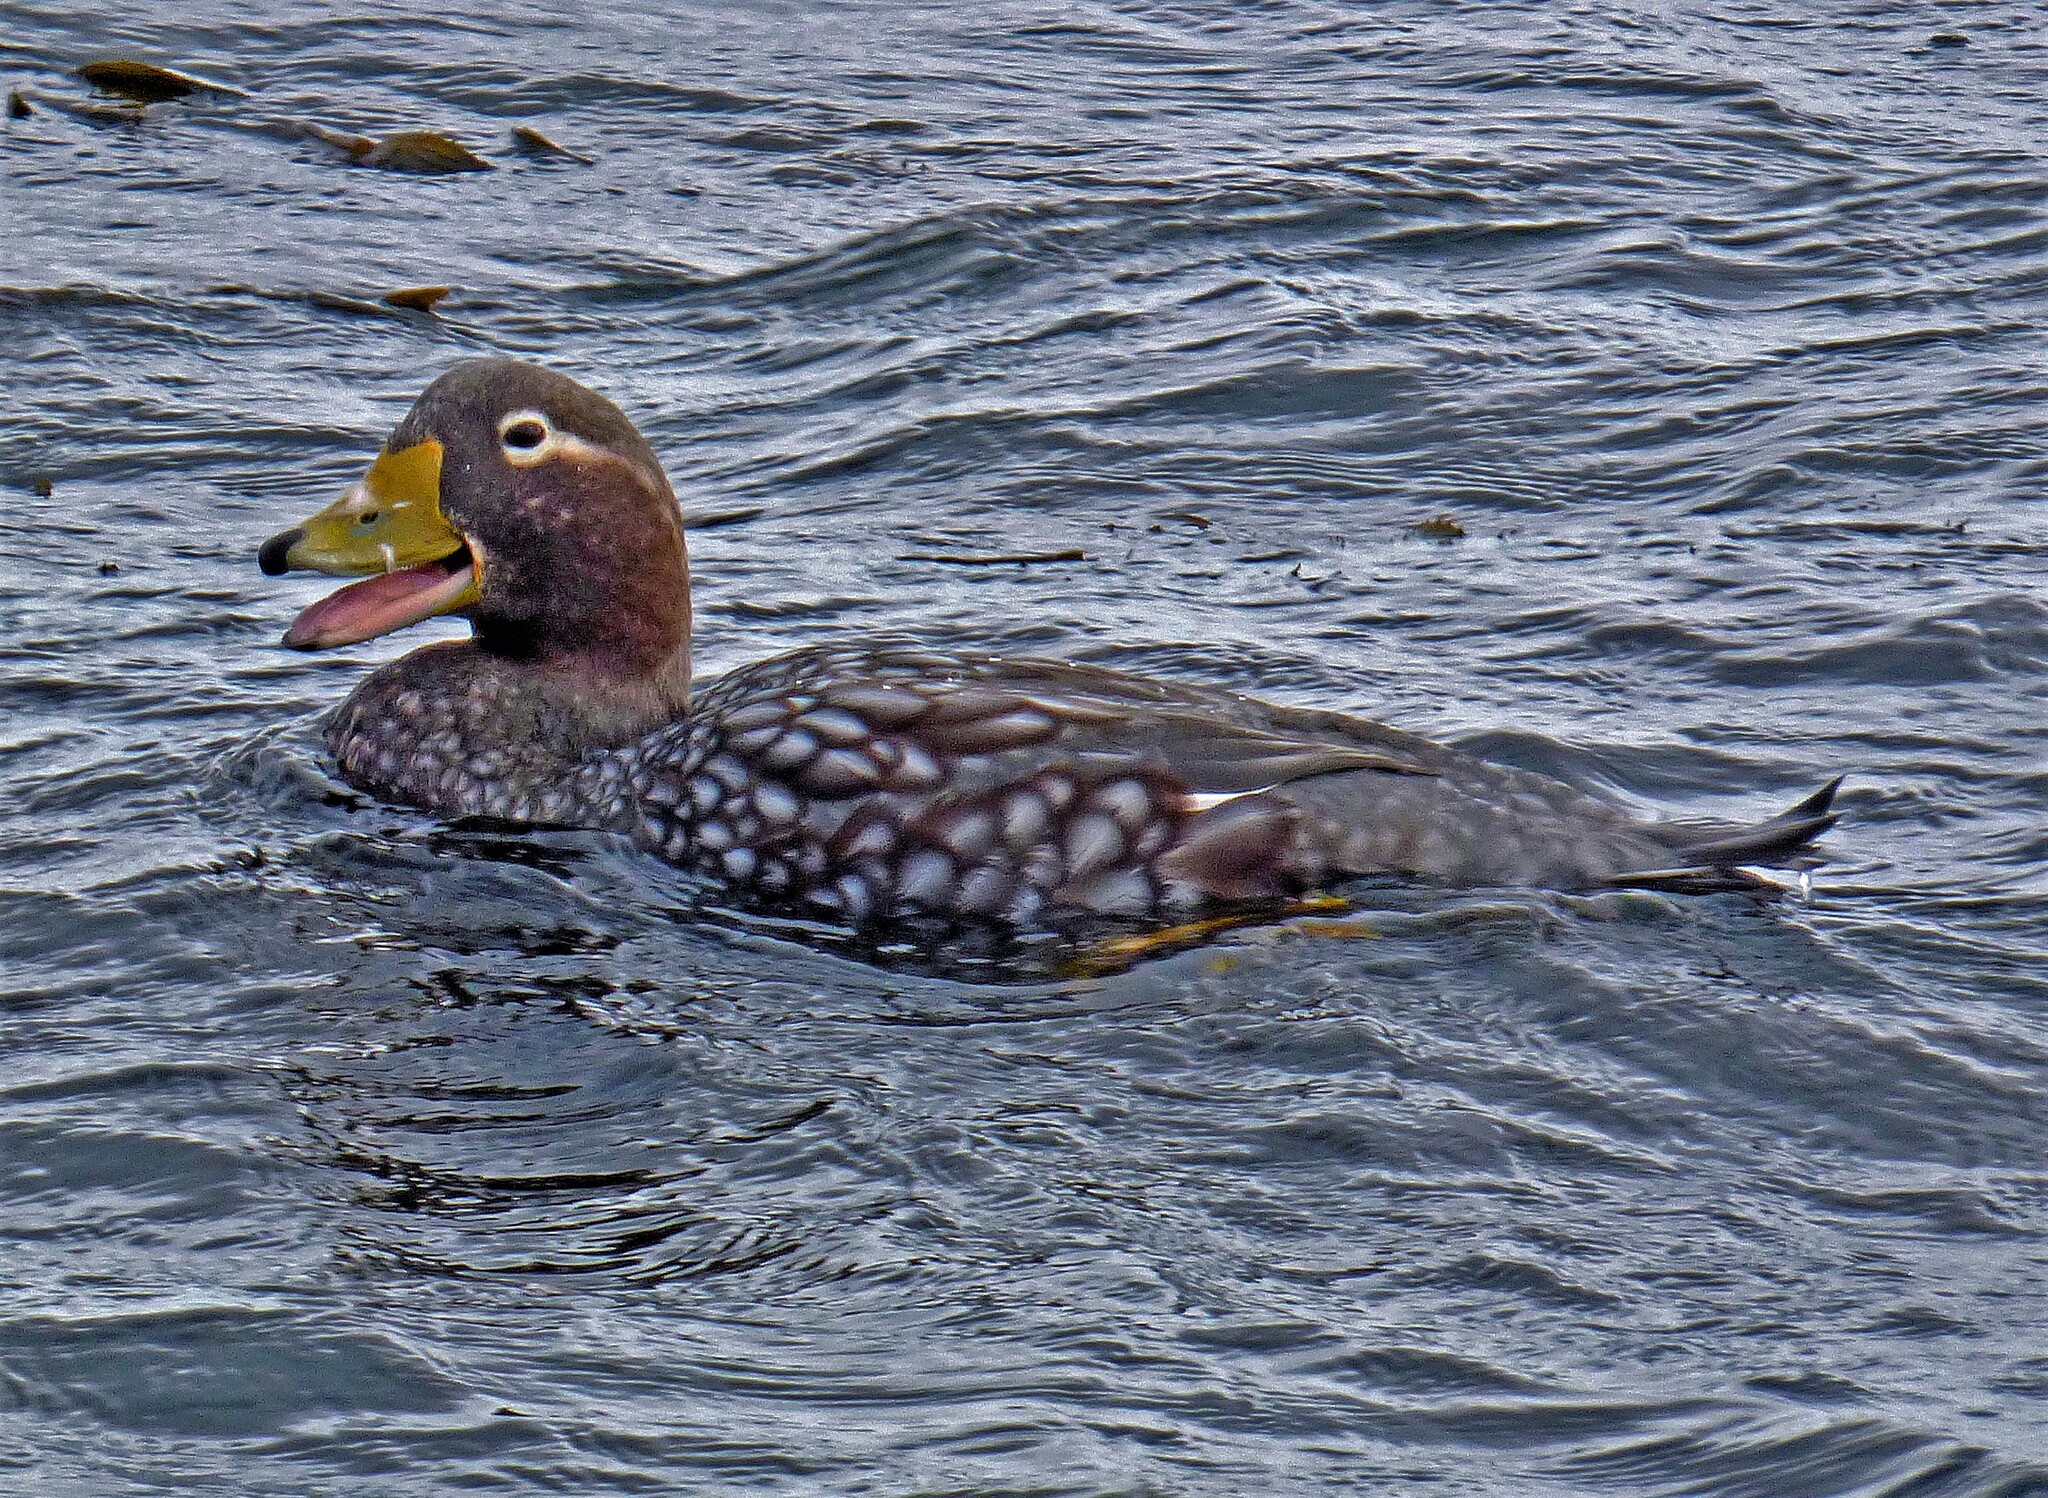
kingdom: Animalia
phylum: Chordata
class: Aves
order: Anseriformes
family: Anatidae
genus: Tachyeres
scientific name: Tachyeres brachypterus
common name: Falkland steamer duck
